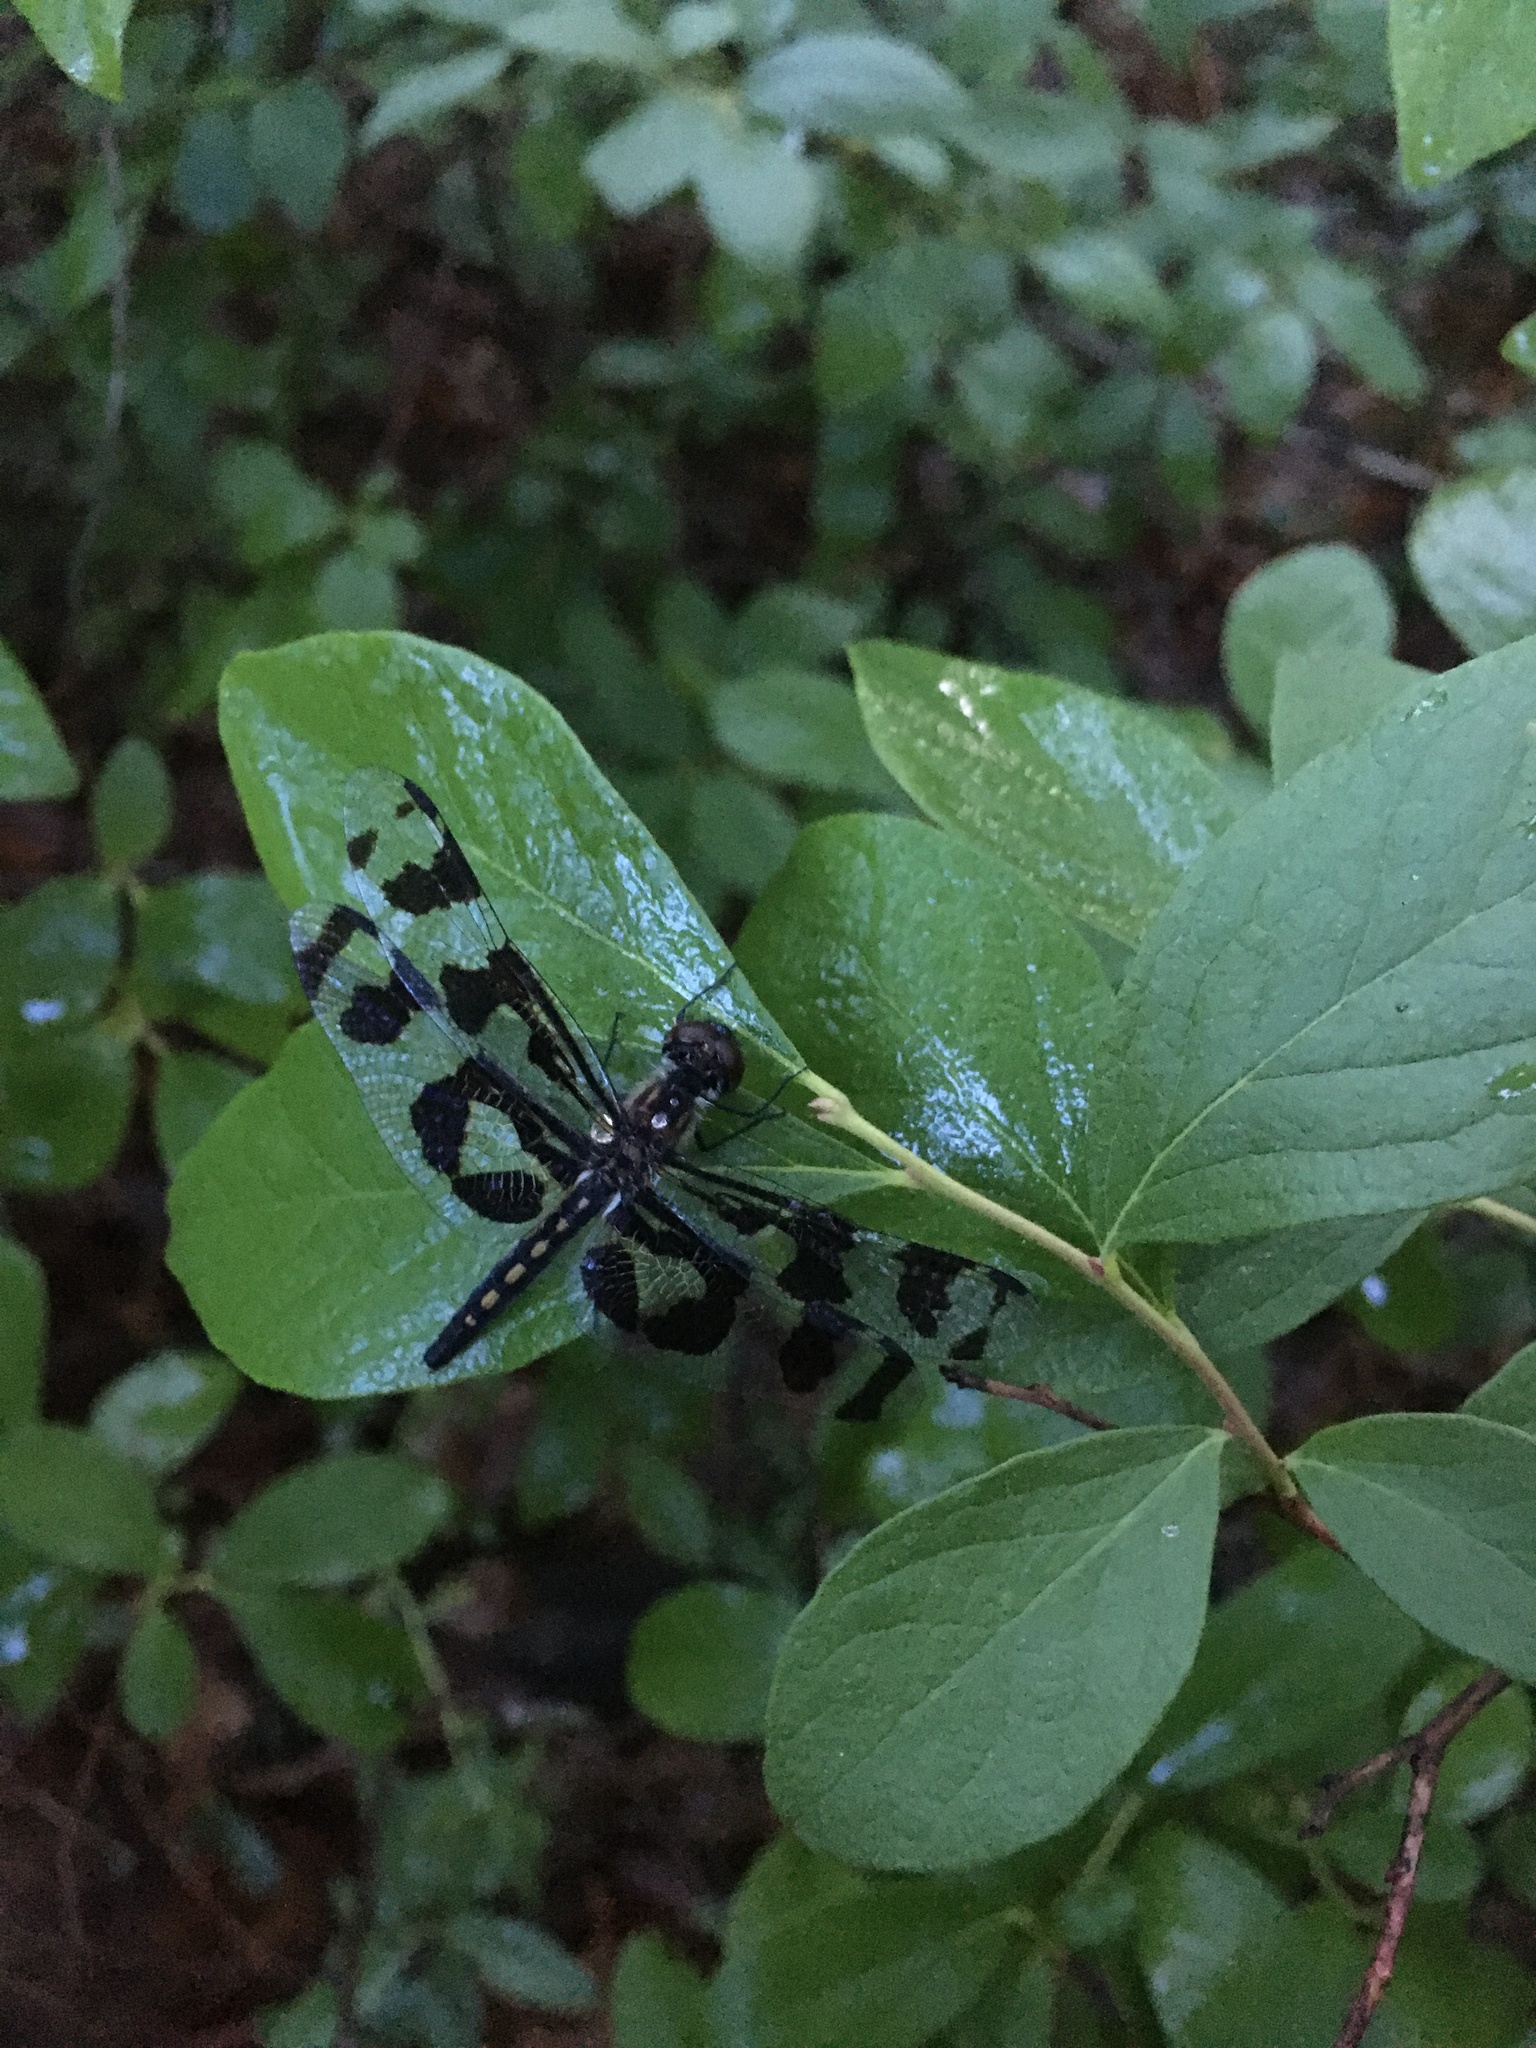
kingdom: Animalia
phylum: Arthropoda
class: Insecta
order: Odonata
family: Libellulidae
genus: Celithemis
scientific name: Celithemis fasciata
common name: Banded pennant
